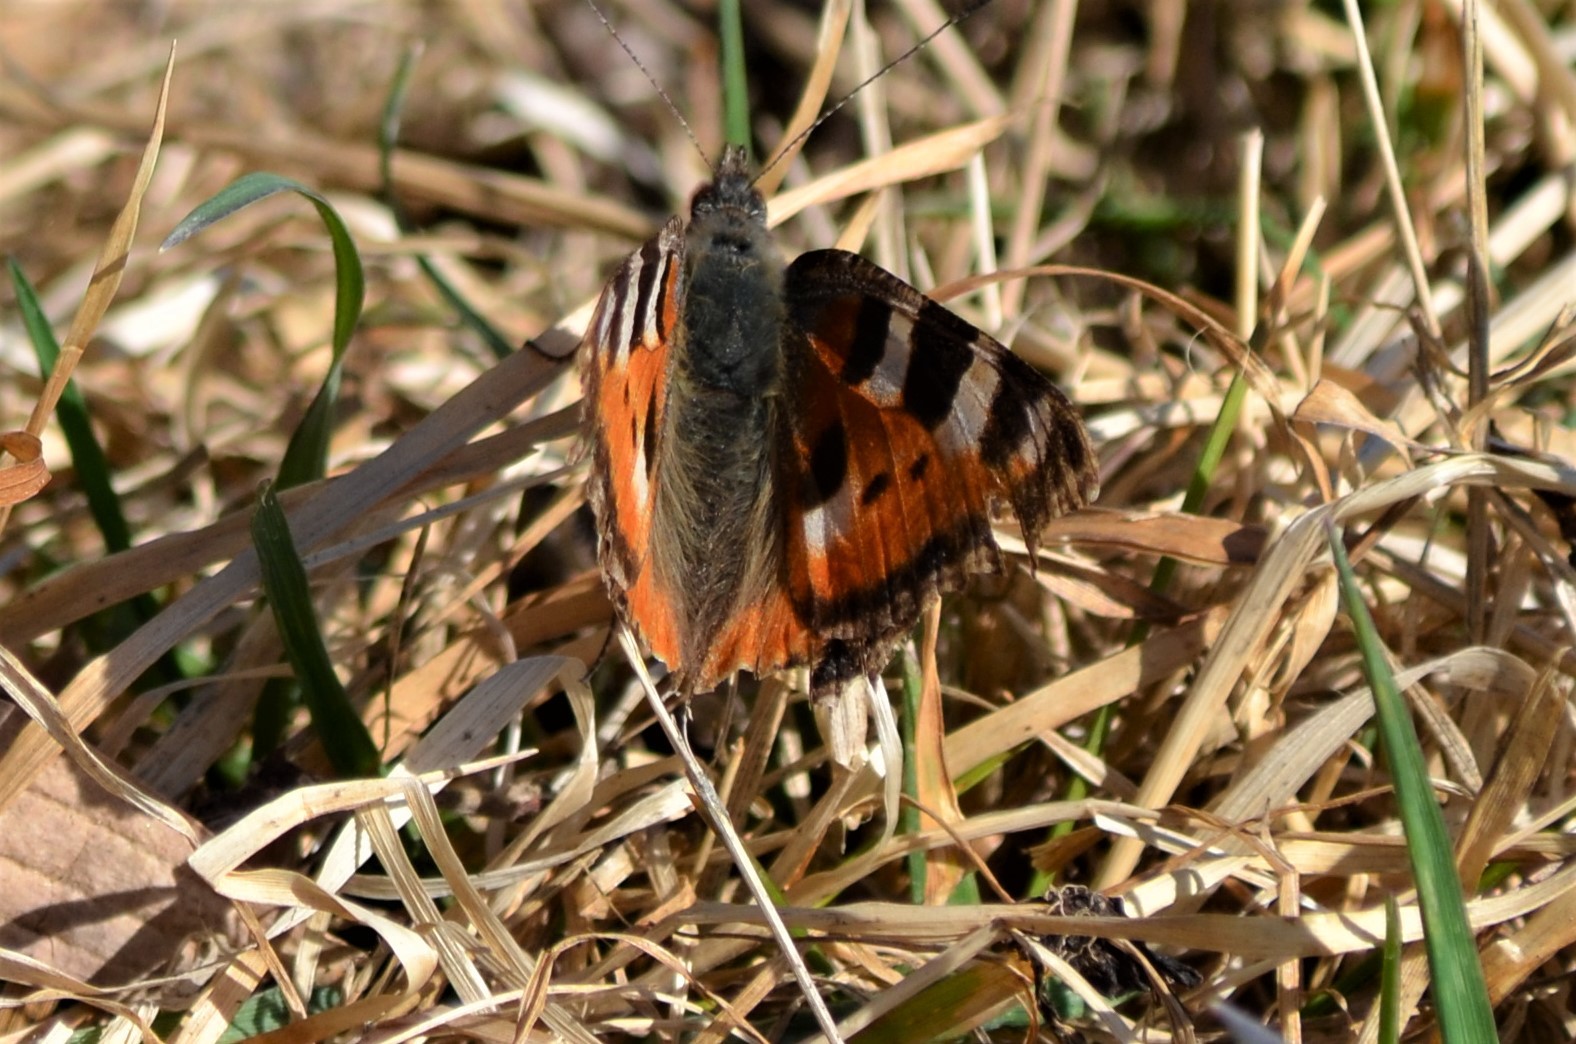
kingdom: Animalia
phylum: Arthropoda
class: Insecta
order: Lepidoptera
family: Nymphalidae
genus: Aglais
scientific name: Aglais urticae
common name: Small tortoiseshell
